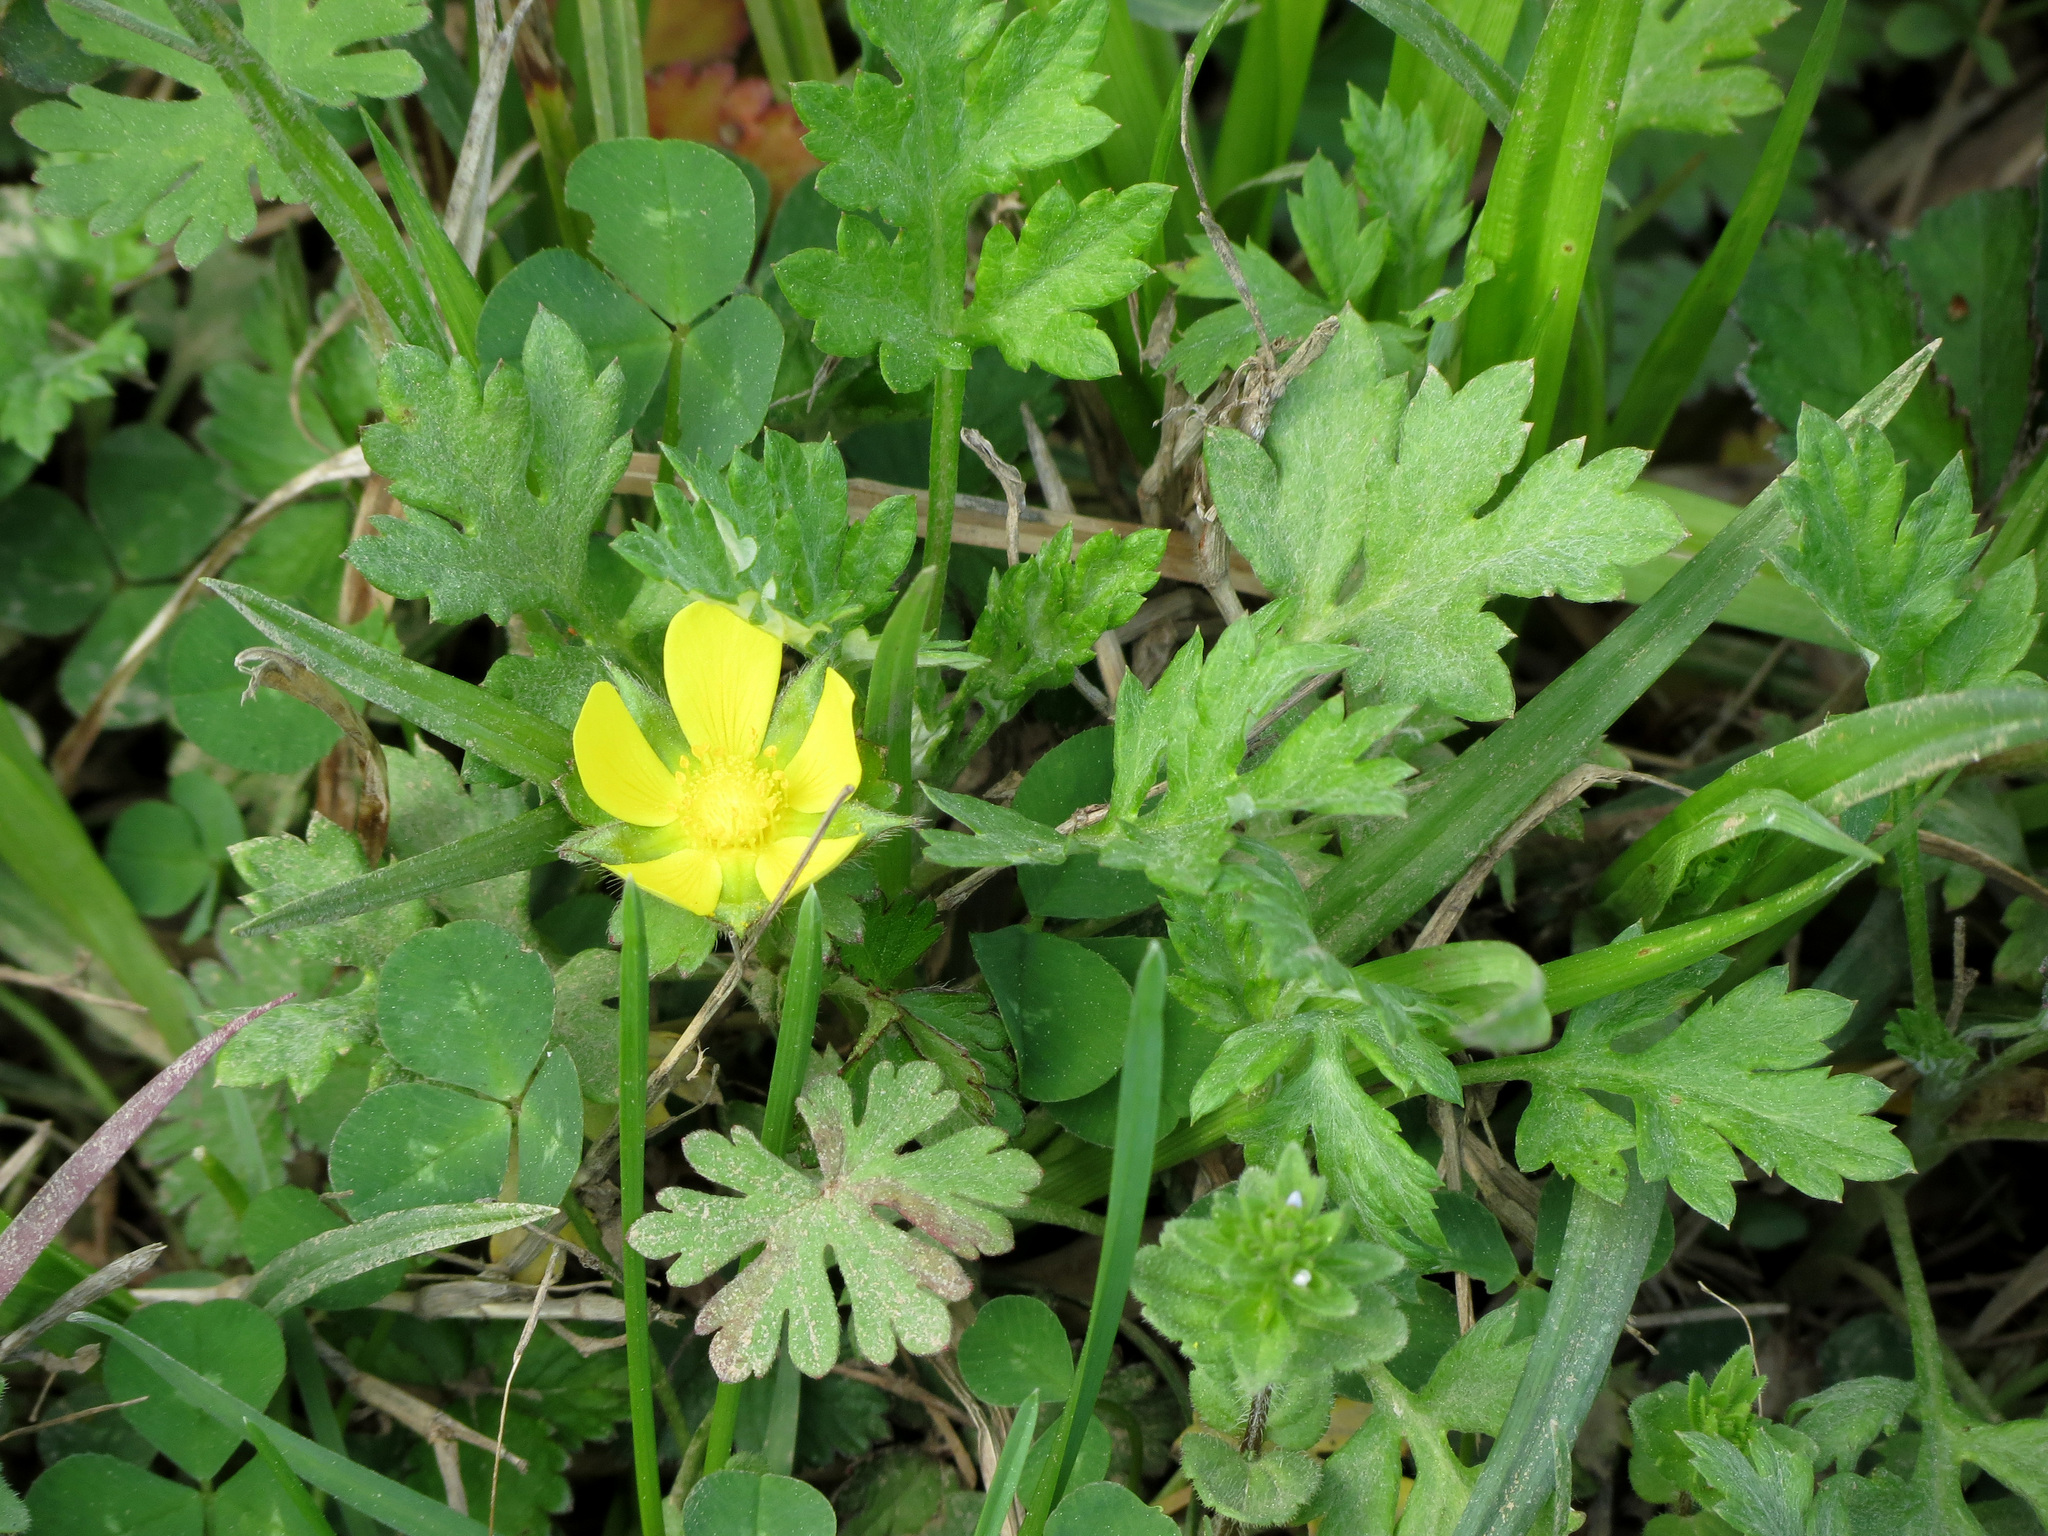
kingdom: Plantae
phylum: Tracheophyta
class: Magnoliopsida
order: Rosales
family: Rosaceae
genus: Potentilla
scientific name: Potentilla indica
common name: Yellow-flowered strawberry
